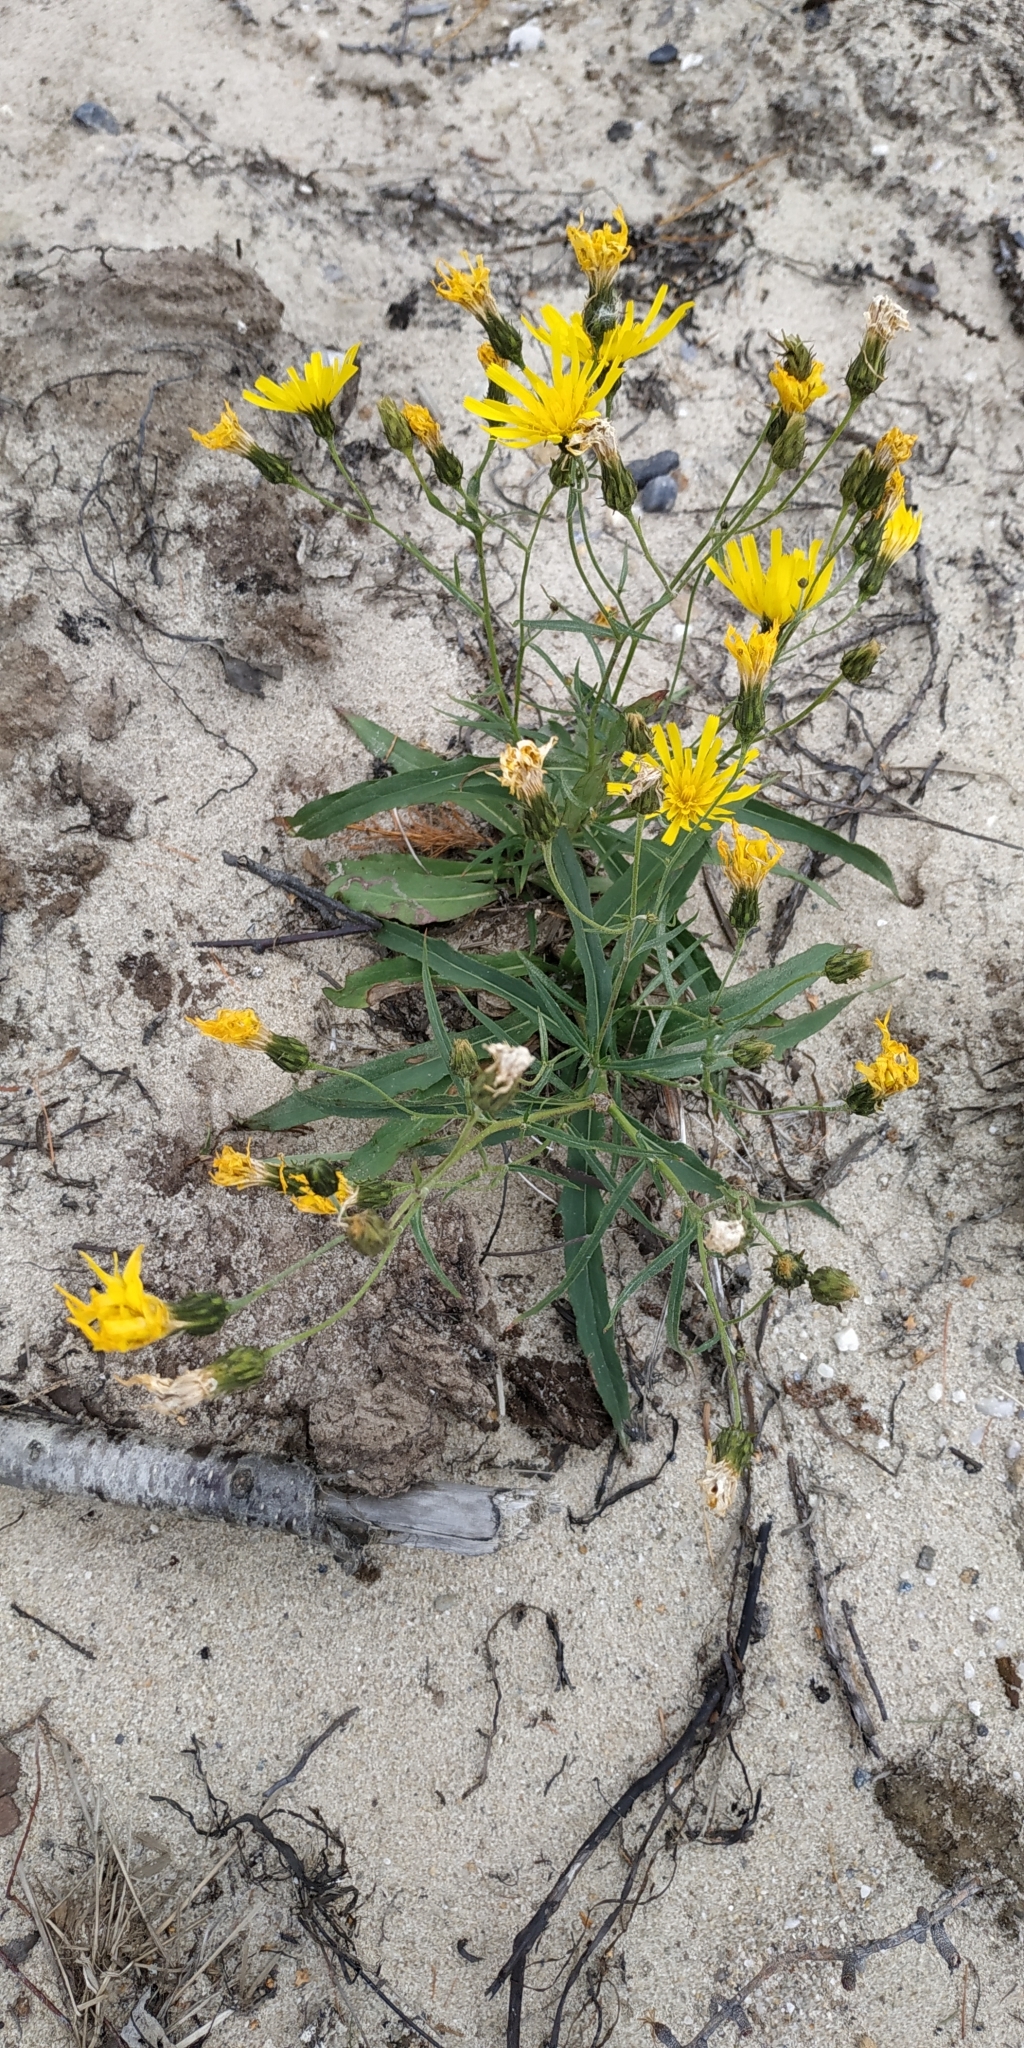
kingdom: Plantae
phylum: Tracheophyta
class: Magnoliopsida
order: Asterales
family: Asteraceae
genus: Hieracium
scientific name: Hieracium umbellatum
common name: Northern hawkweed
